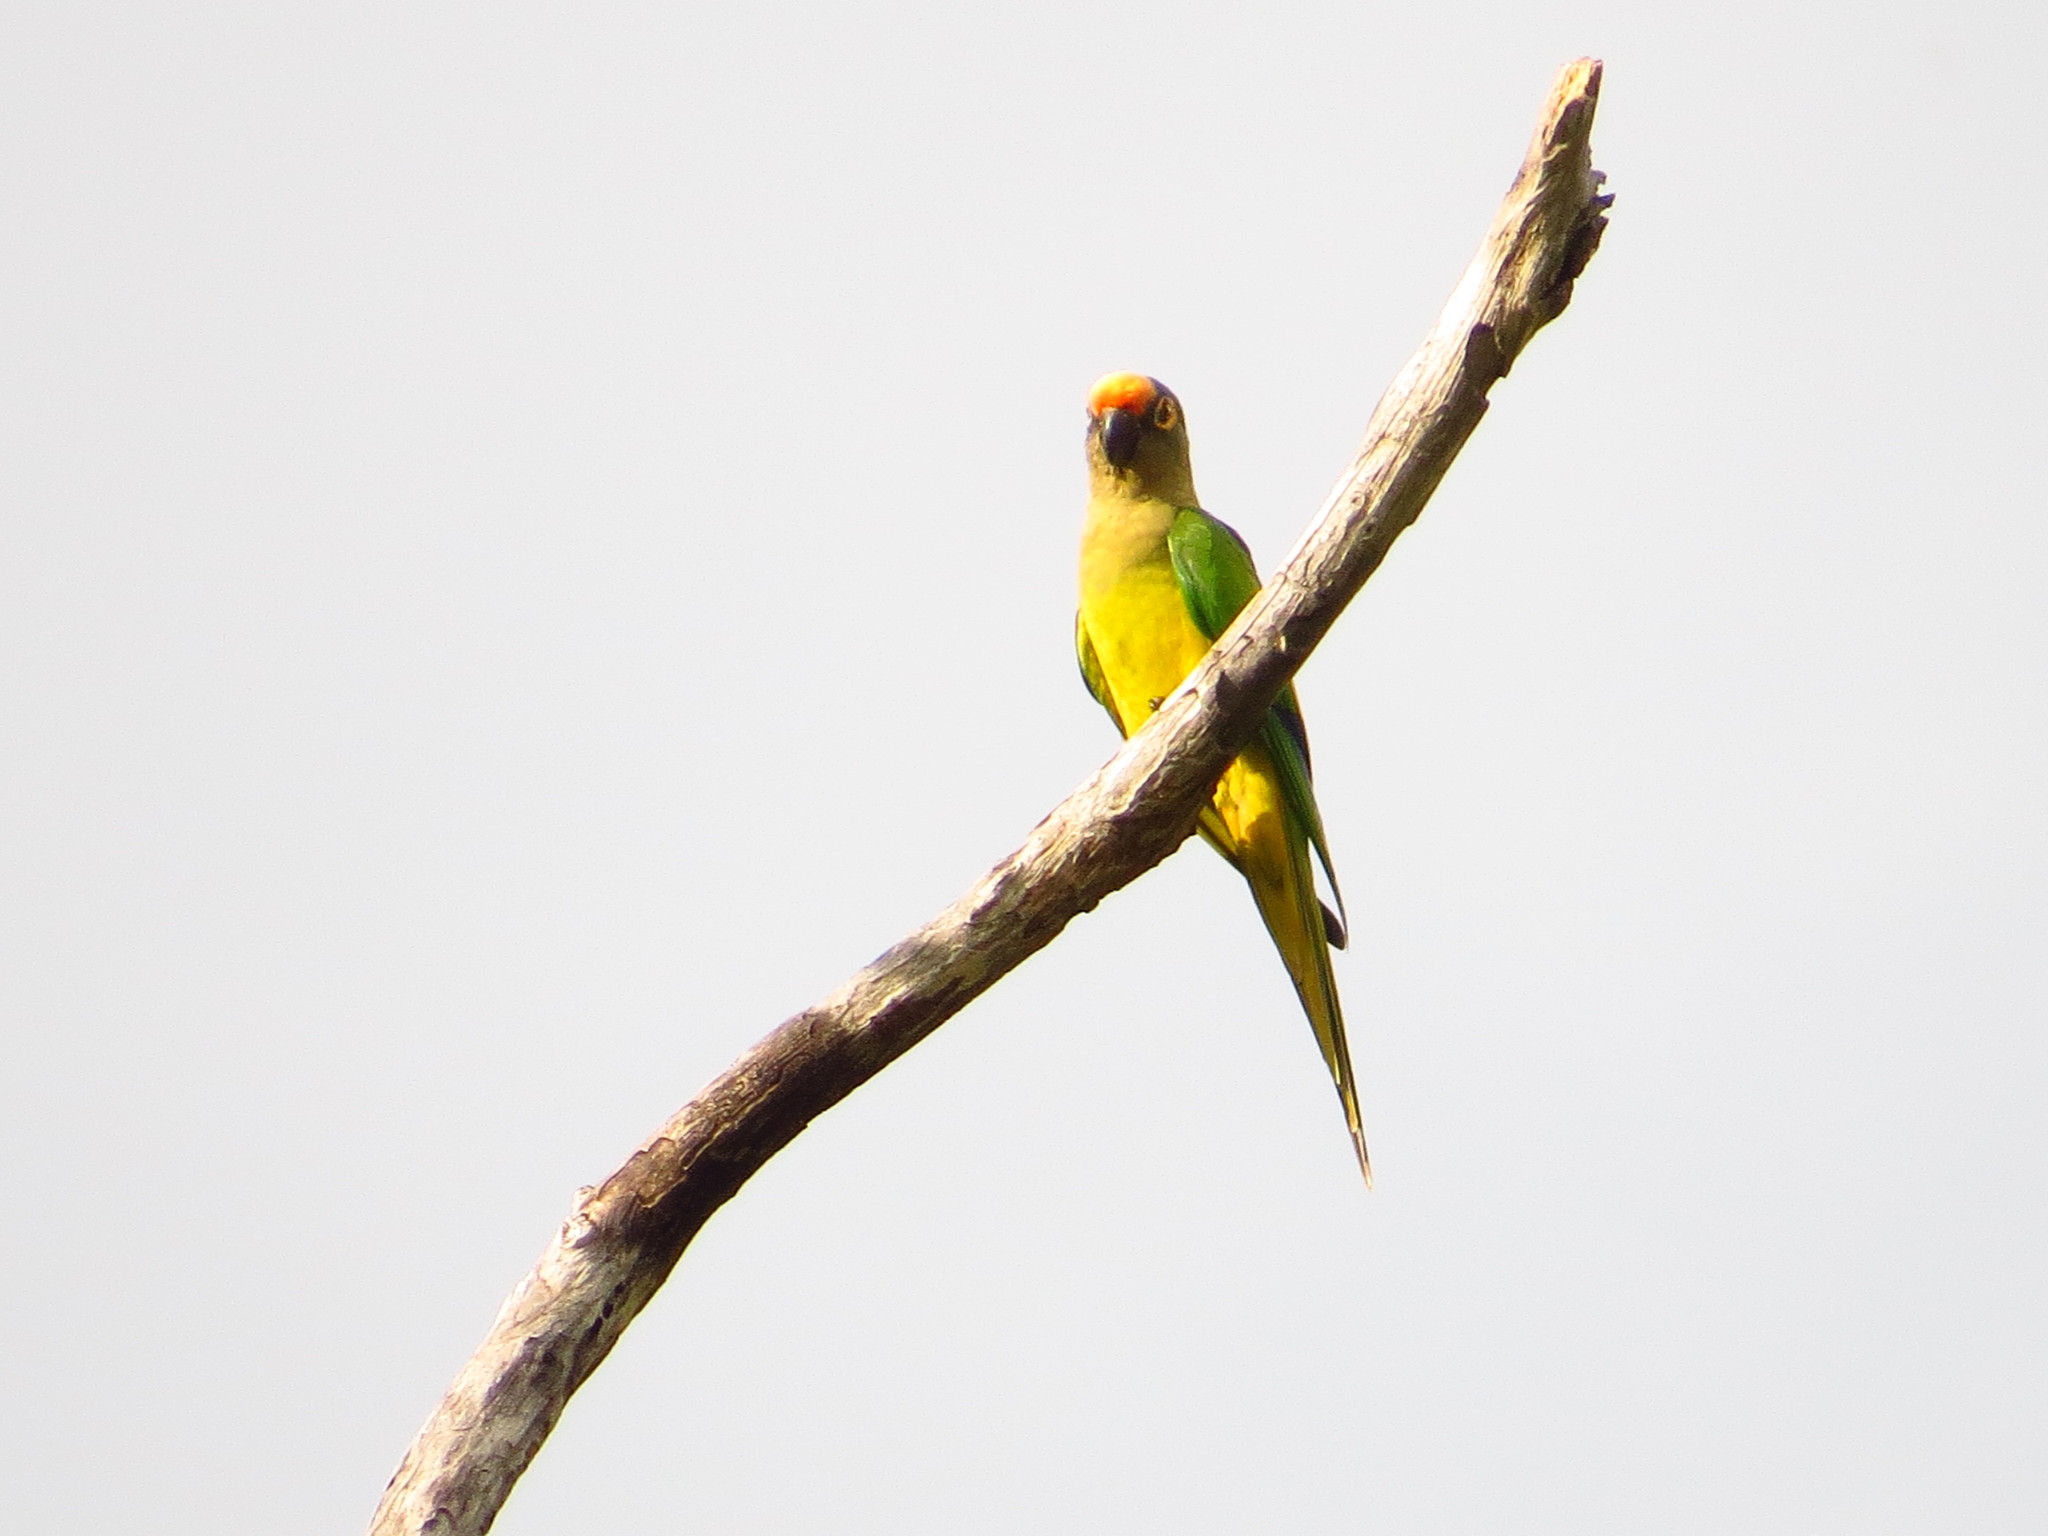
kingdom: Animalia
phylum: Chordata
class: Aves
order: Psittaciformes
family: Psittacidae
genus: Aratinga
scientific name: Aratinga aurea
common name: Peach-fronted parakeet
